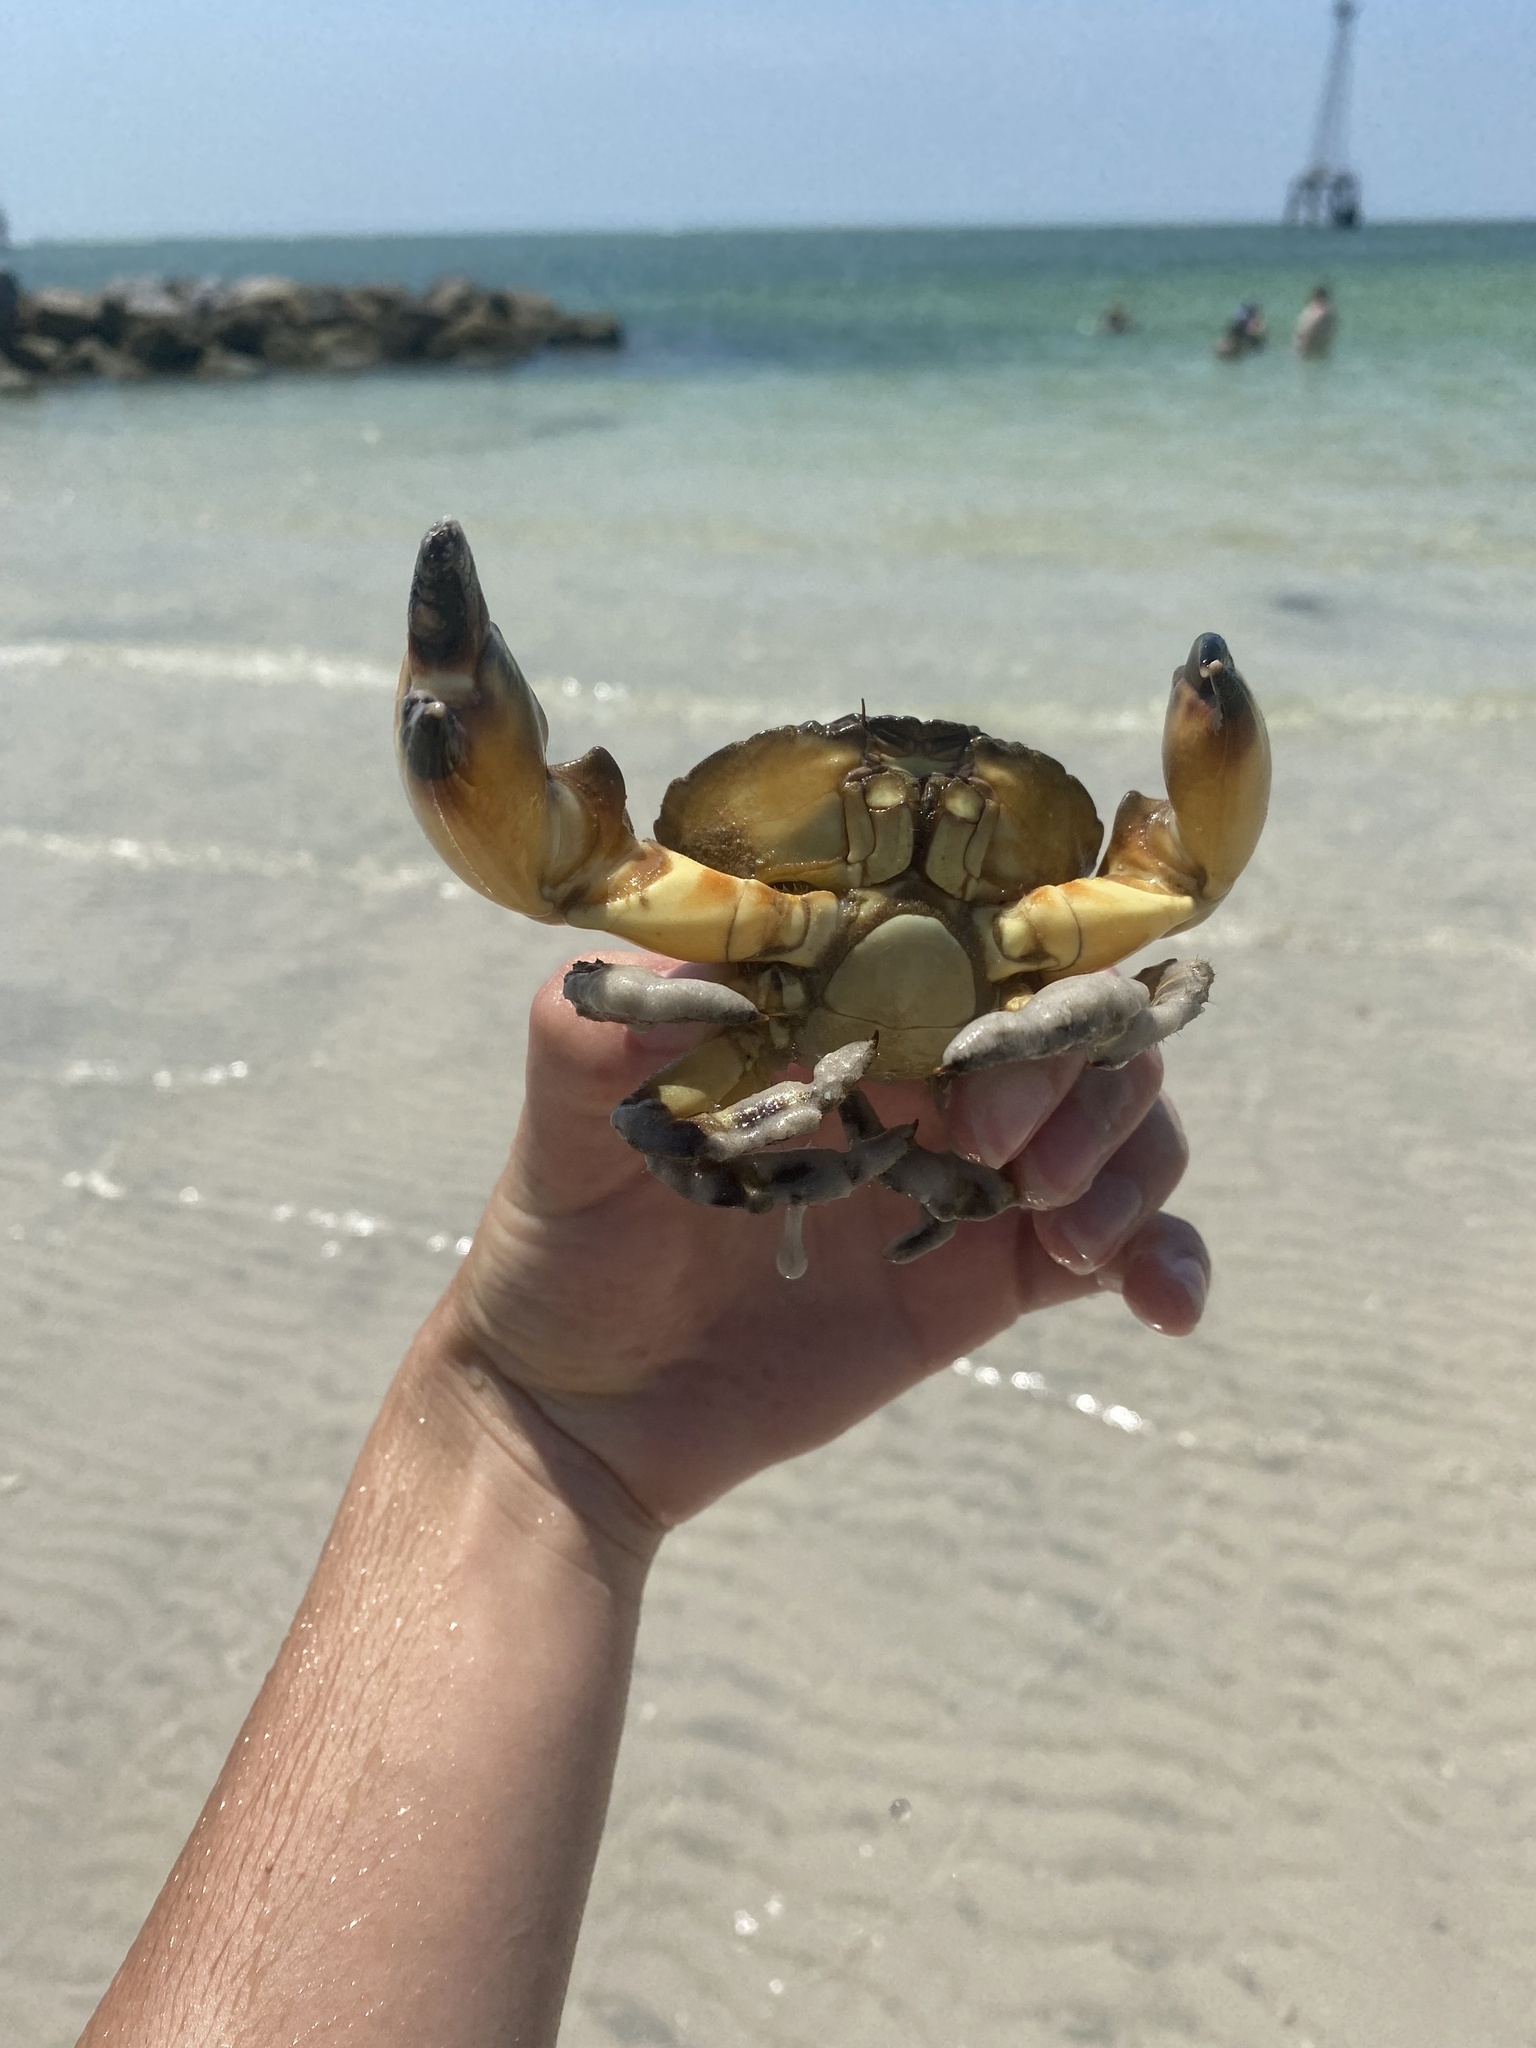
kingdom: Animalia
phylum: Arthropoda
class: Malacostraca
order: Decapoda
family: Menippidae
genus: Menippe
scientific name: Menippe mercenaria
